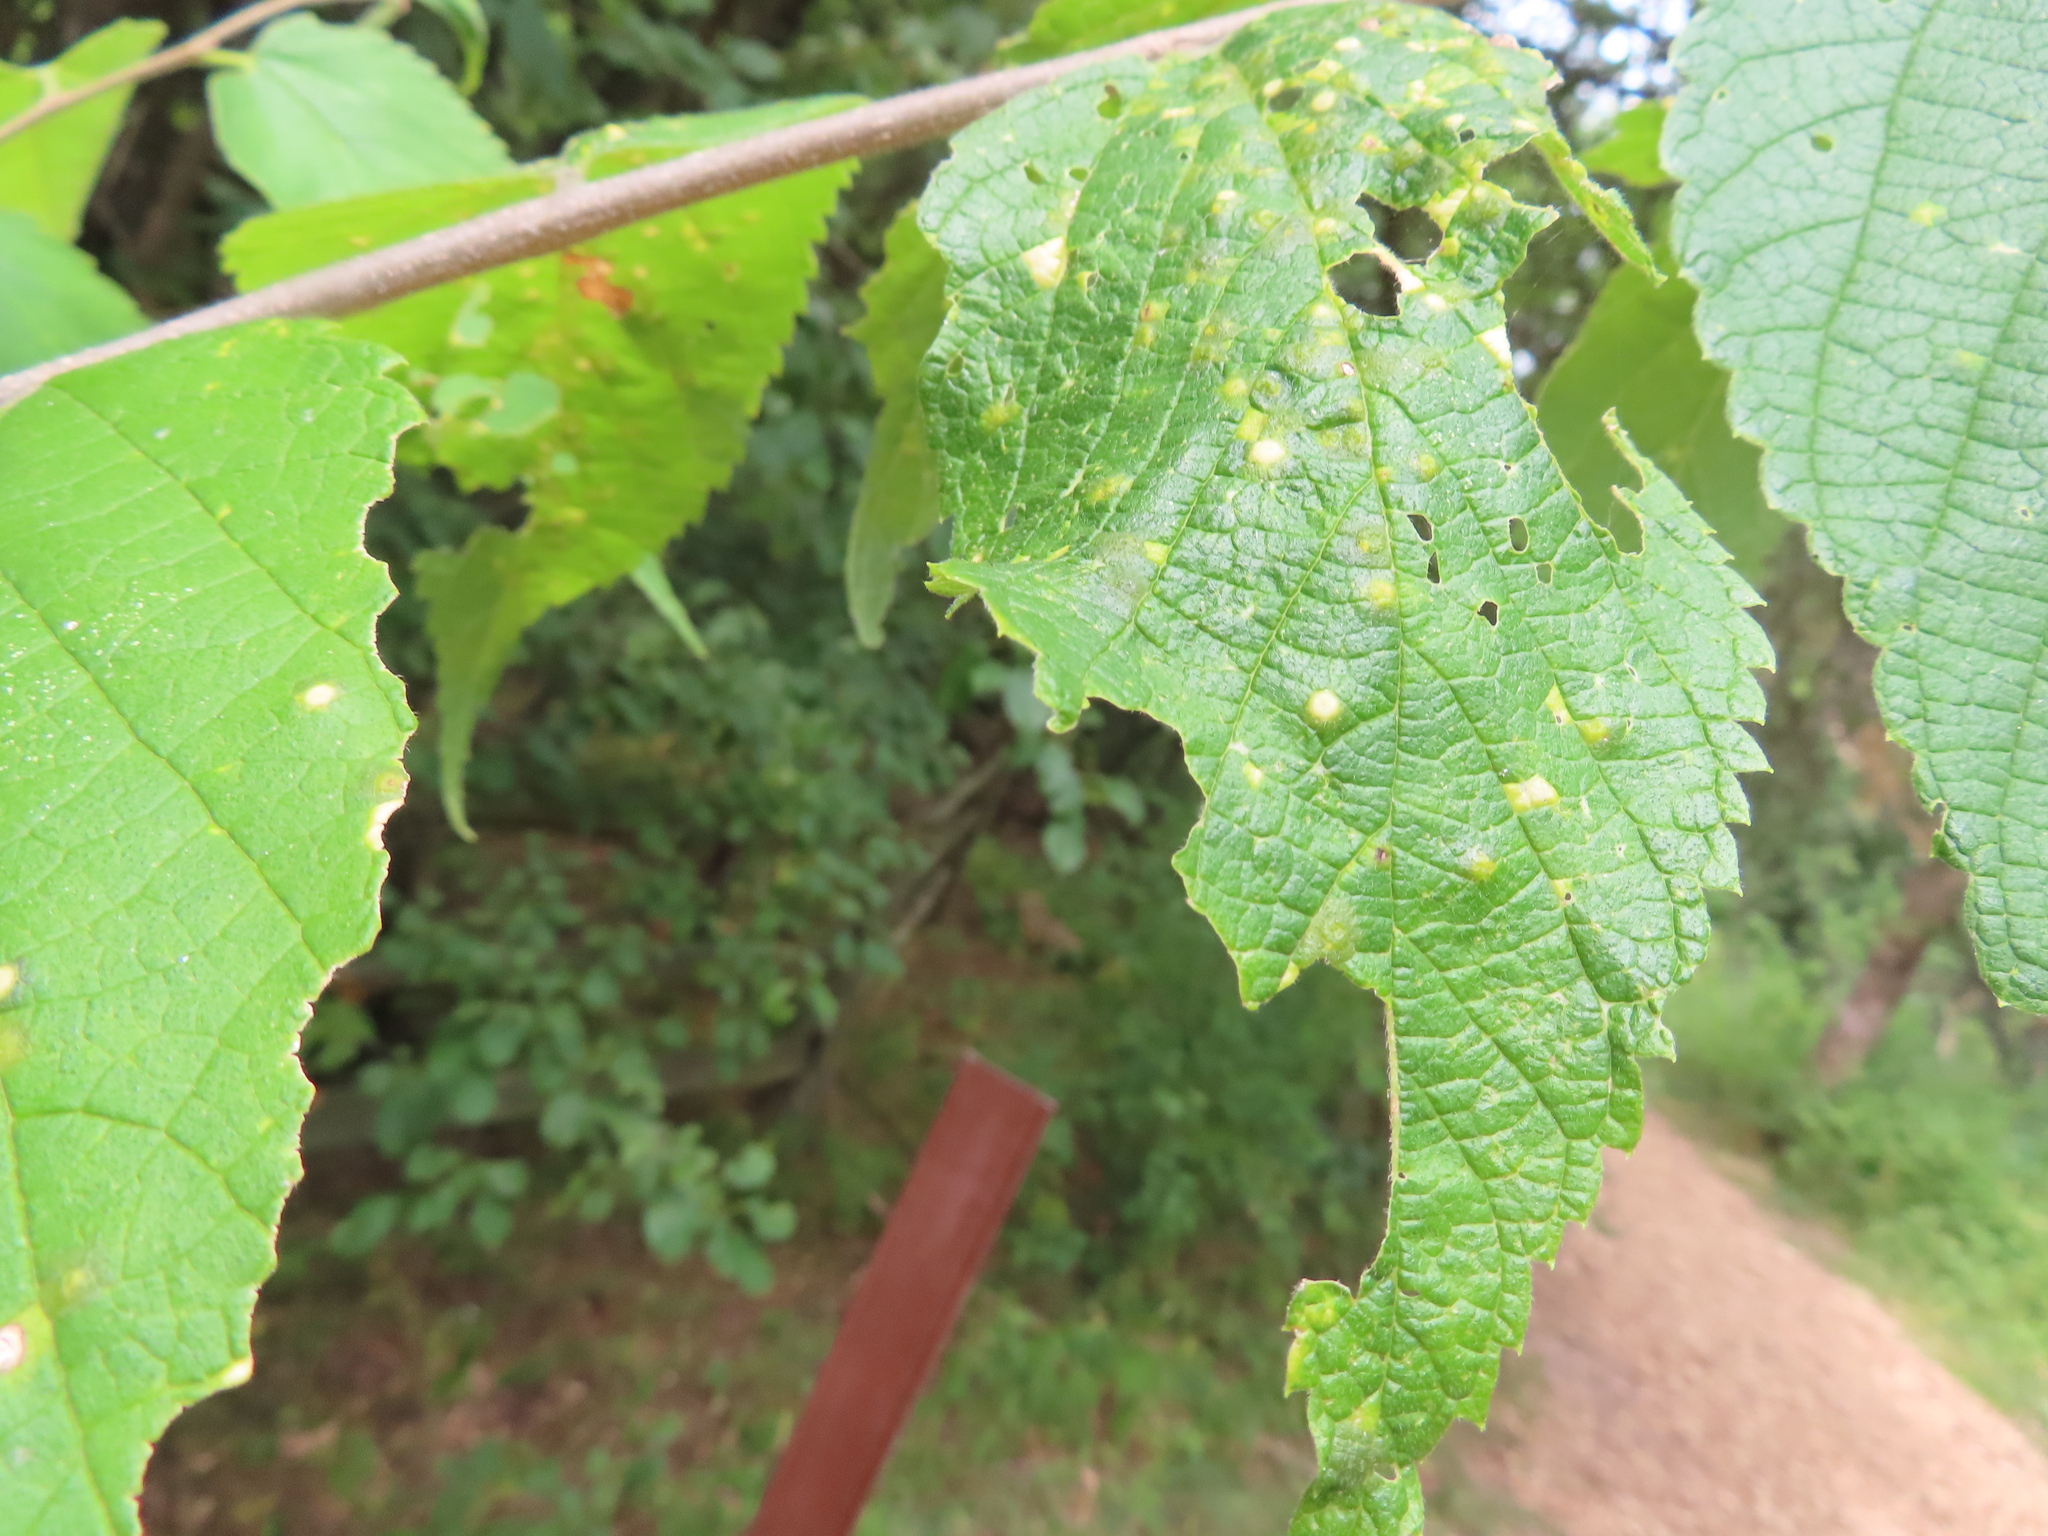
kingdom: Animalia
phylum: Arthropoda
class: Insecta
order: Hemiptera
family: Aphalaridae
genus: Pachypsylla
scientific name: Pachypsylla celtidisvesicula
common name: Hackberry blister gall psyllid
